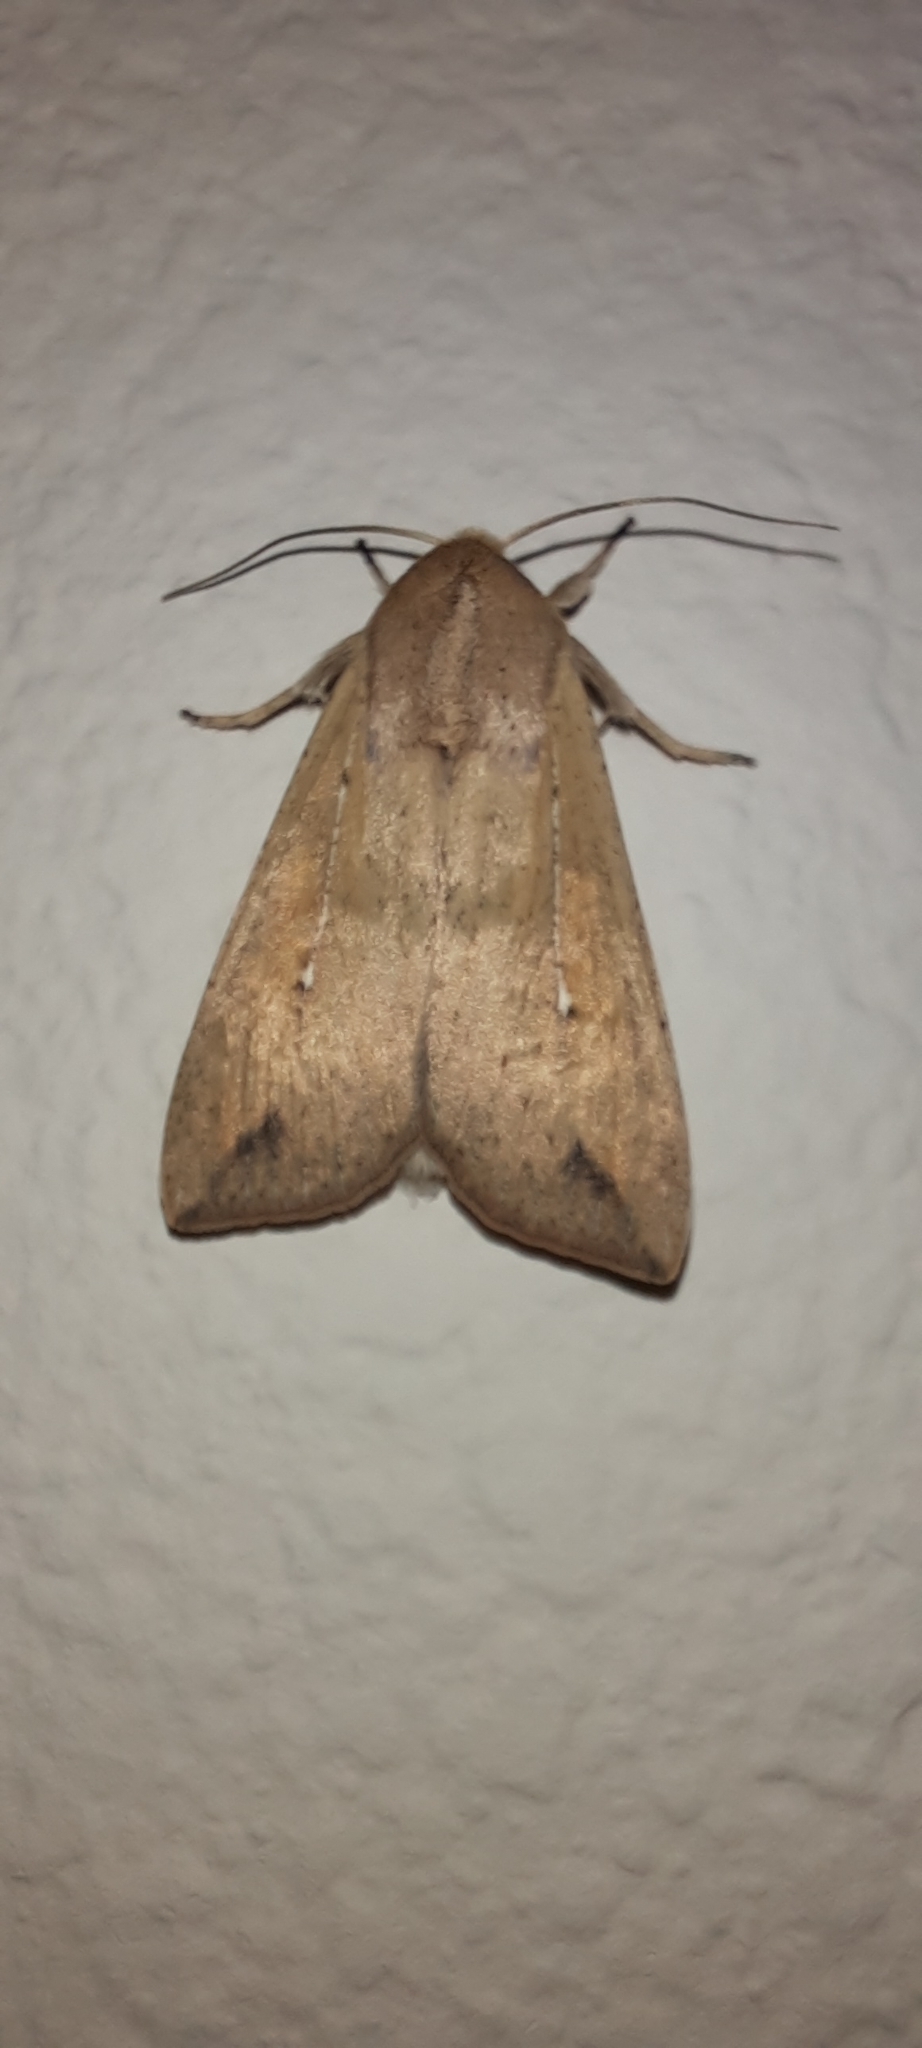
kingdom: Animalia
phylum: Arthropoda
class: Insecta
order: Lepidoptera
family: Noctuidae
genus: Mythimna
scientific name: Mythimna unipuncta
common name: White-speck
